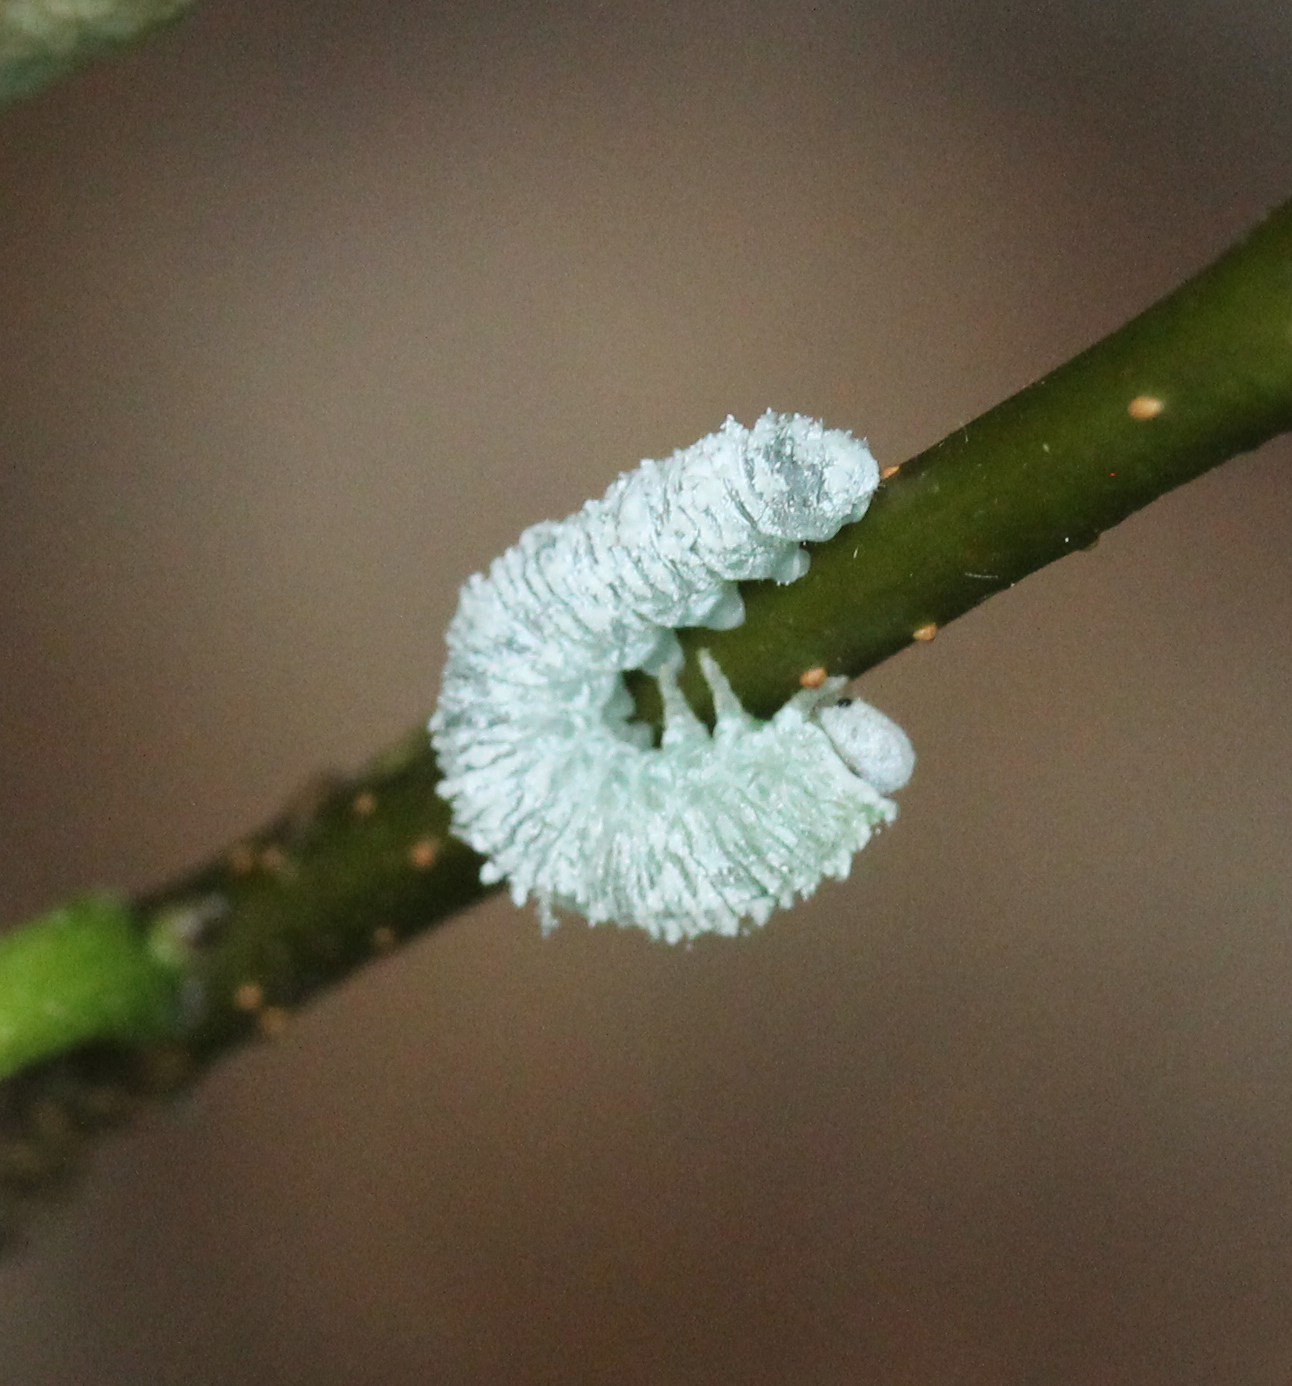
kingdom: Animalia
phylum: Arthropoda
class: Insecta
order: Hymenoptera
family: Tenthredinidae
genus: Eriocampa
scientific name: Eriocampa ovata
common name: Alder wooly sawfly
